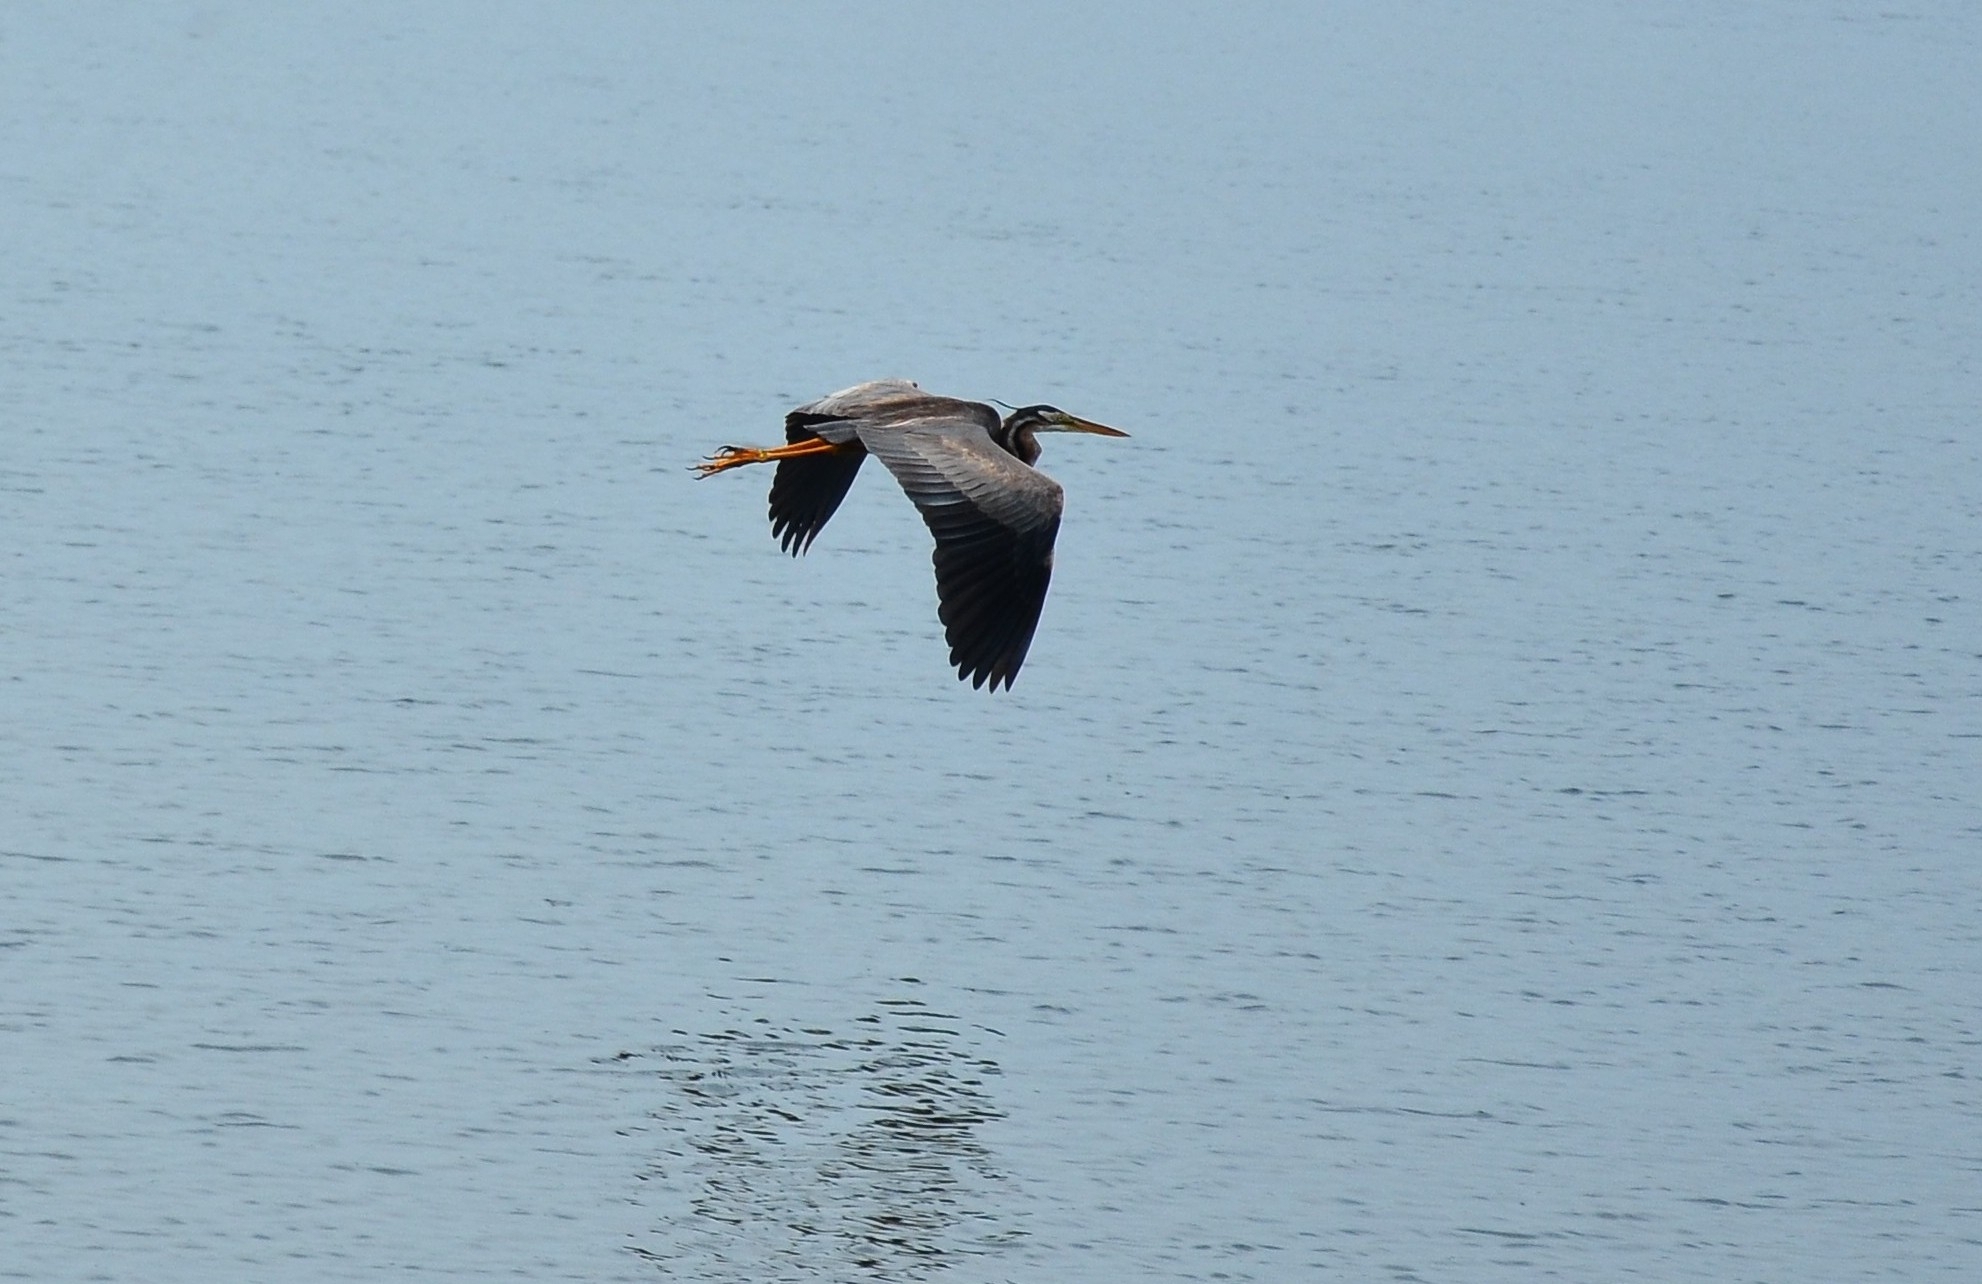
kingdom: Animalia
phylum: Chordata
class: Aves
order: Pelecaniformes
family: Ardeidae
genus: Ardea
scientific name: Ardea purpurea
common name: Purple heron
